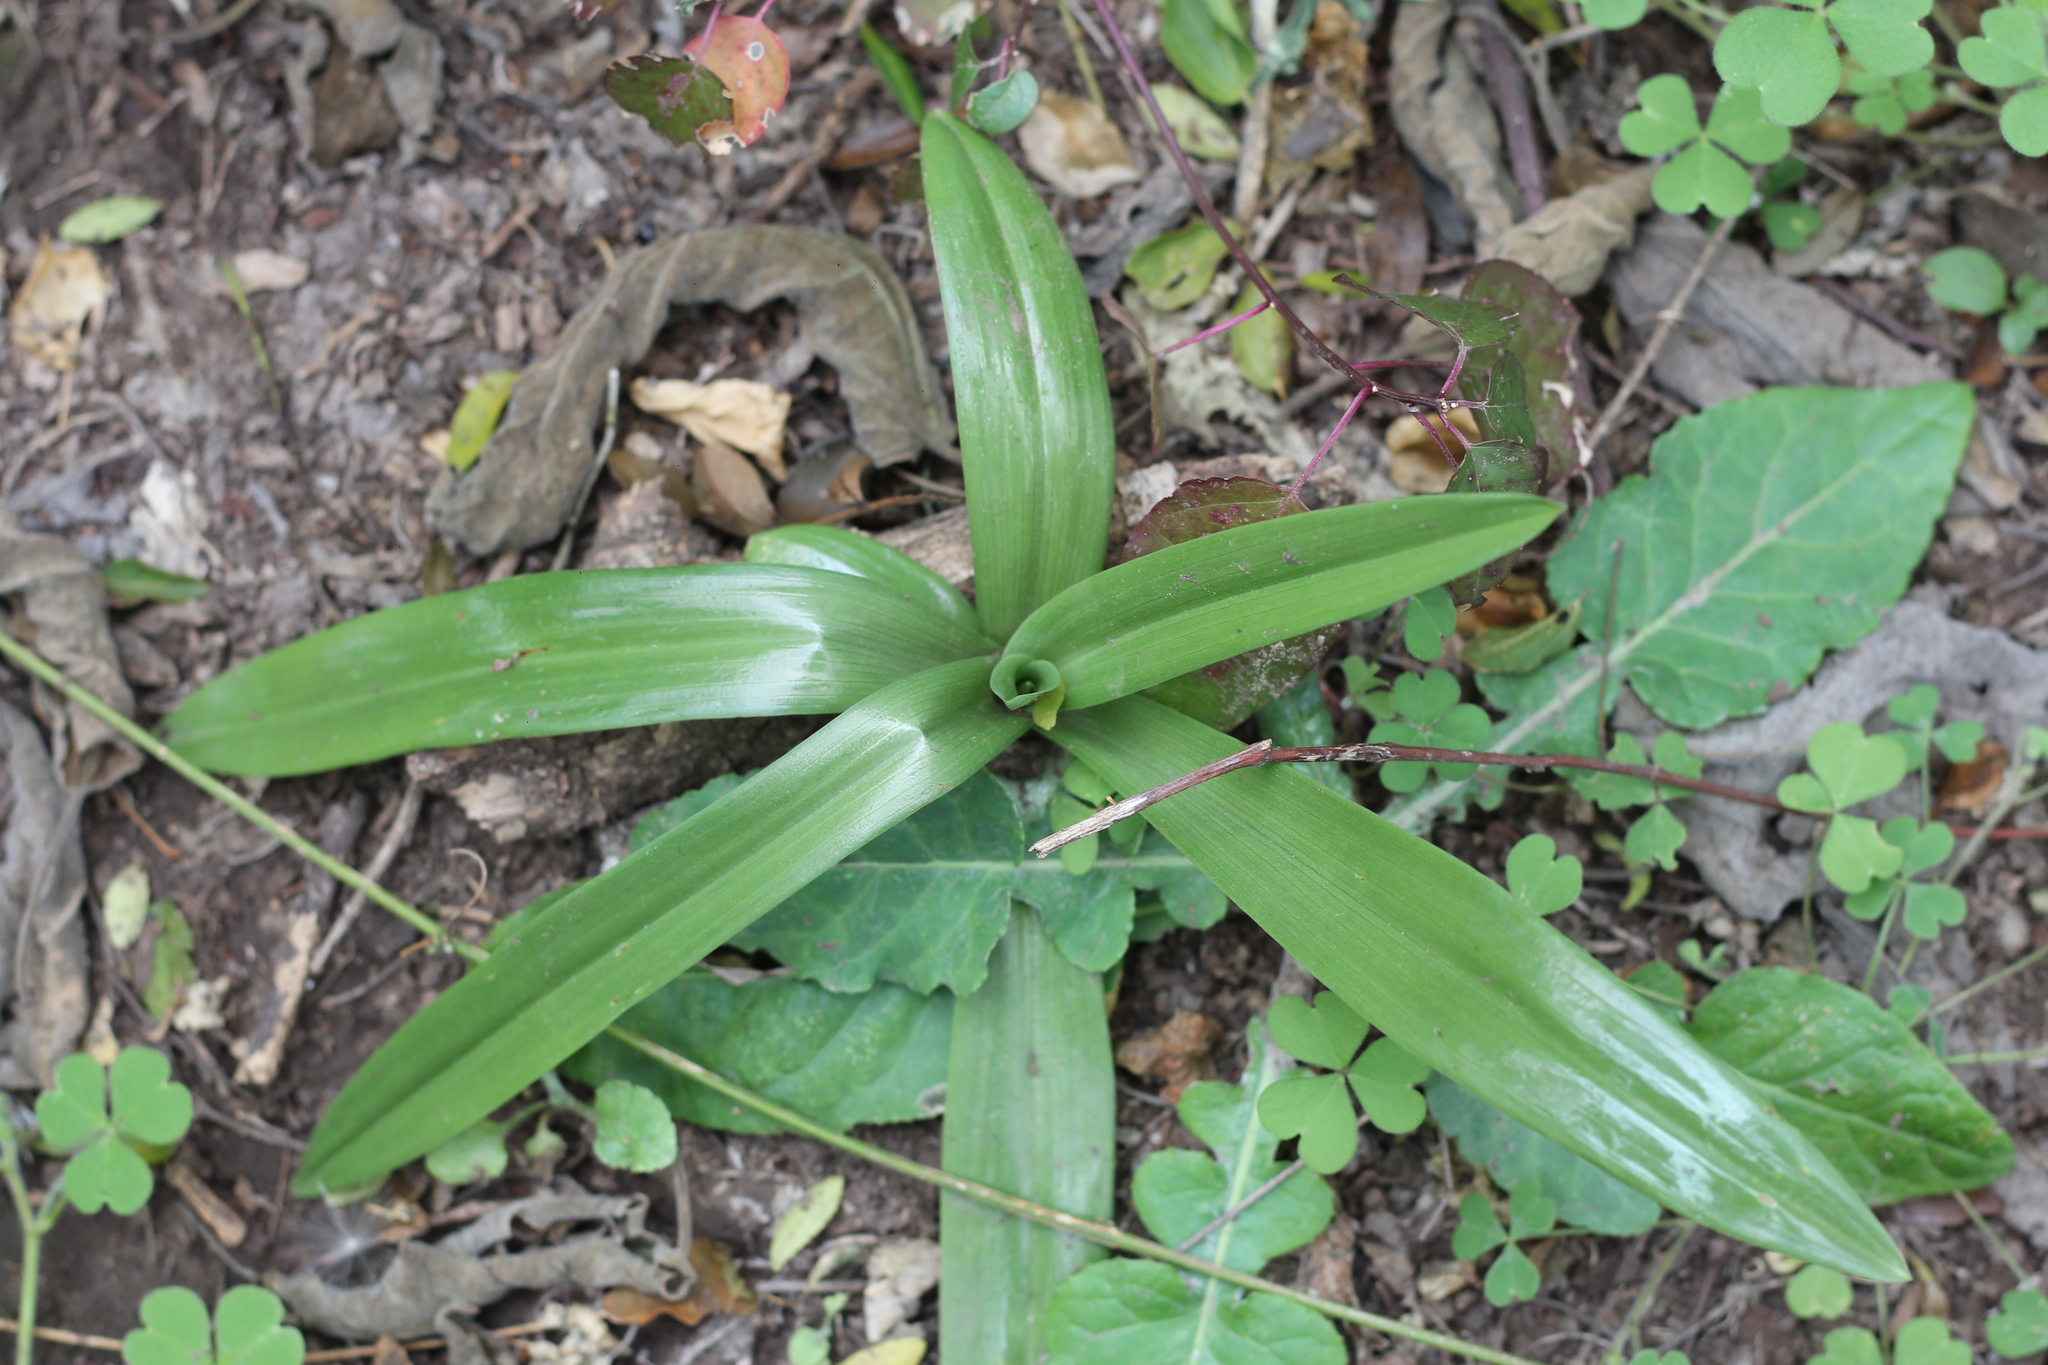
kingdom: Plantae
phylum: Tracheophyta
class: Liliopsida
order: Asparagales
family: Orchidaceae
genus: Chloraea
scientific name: Chloraea membranacea
